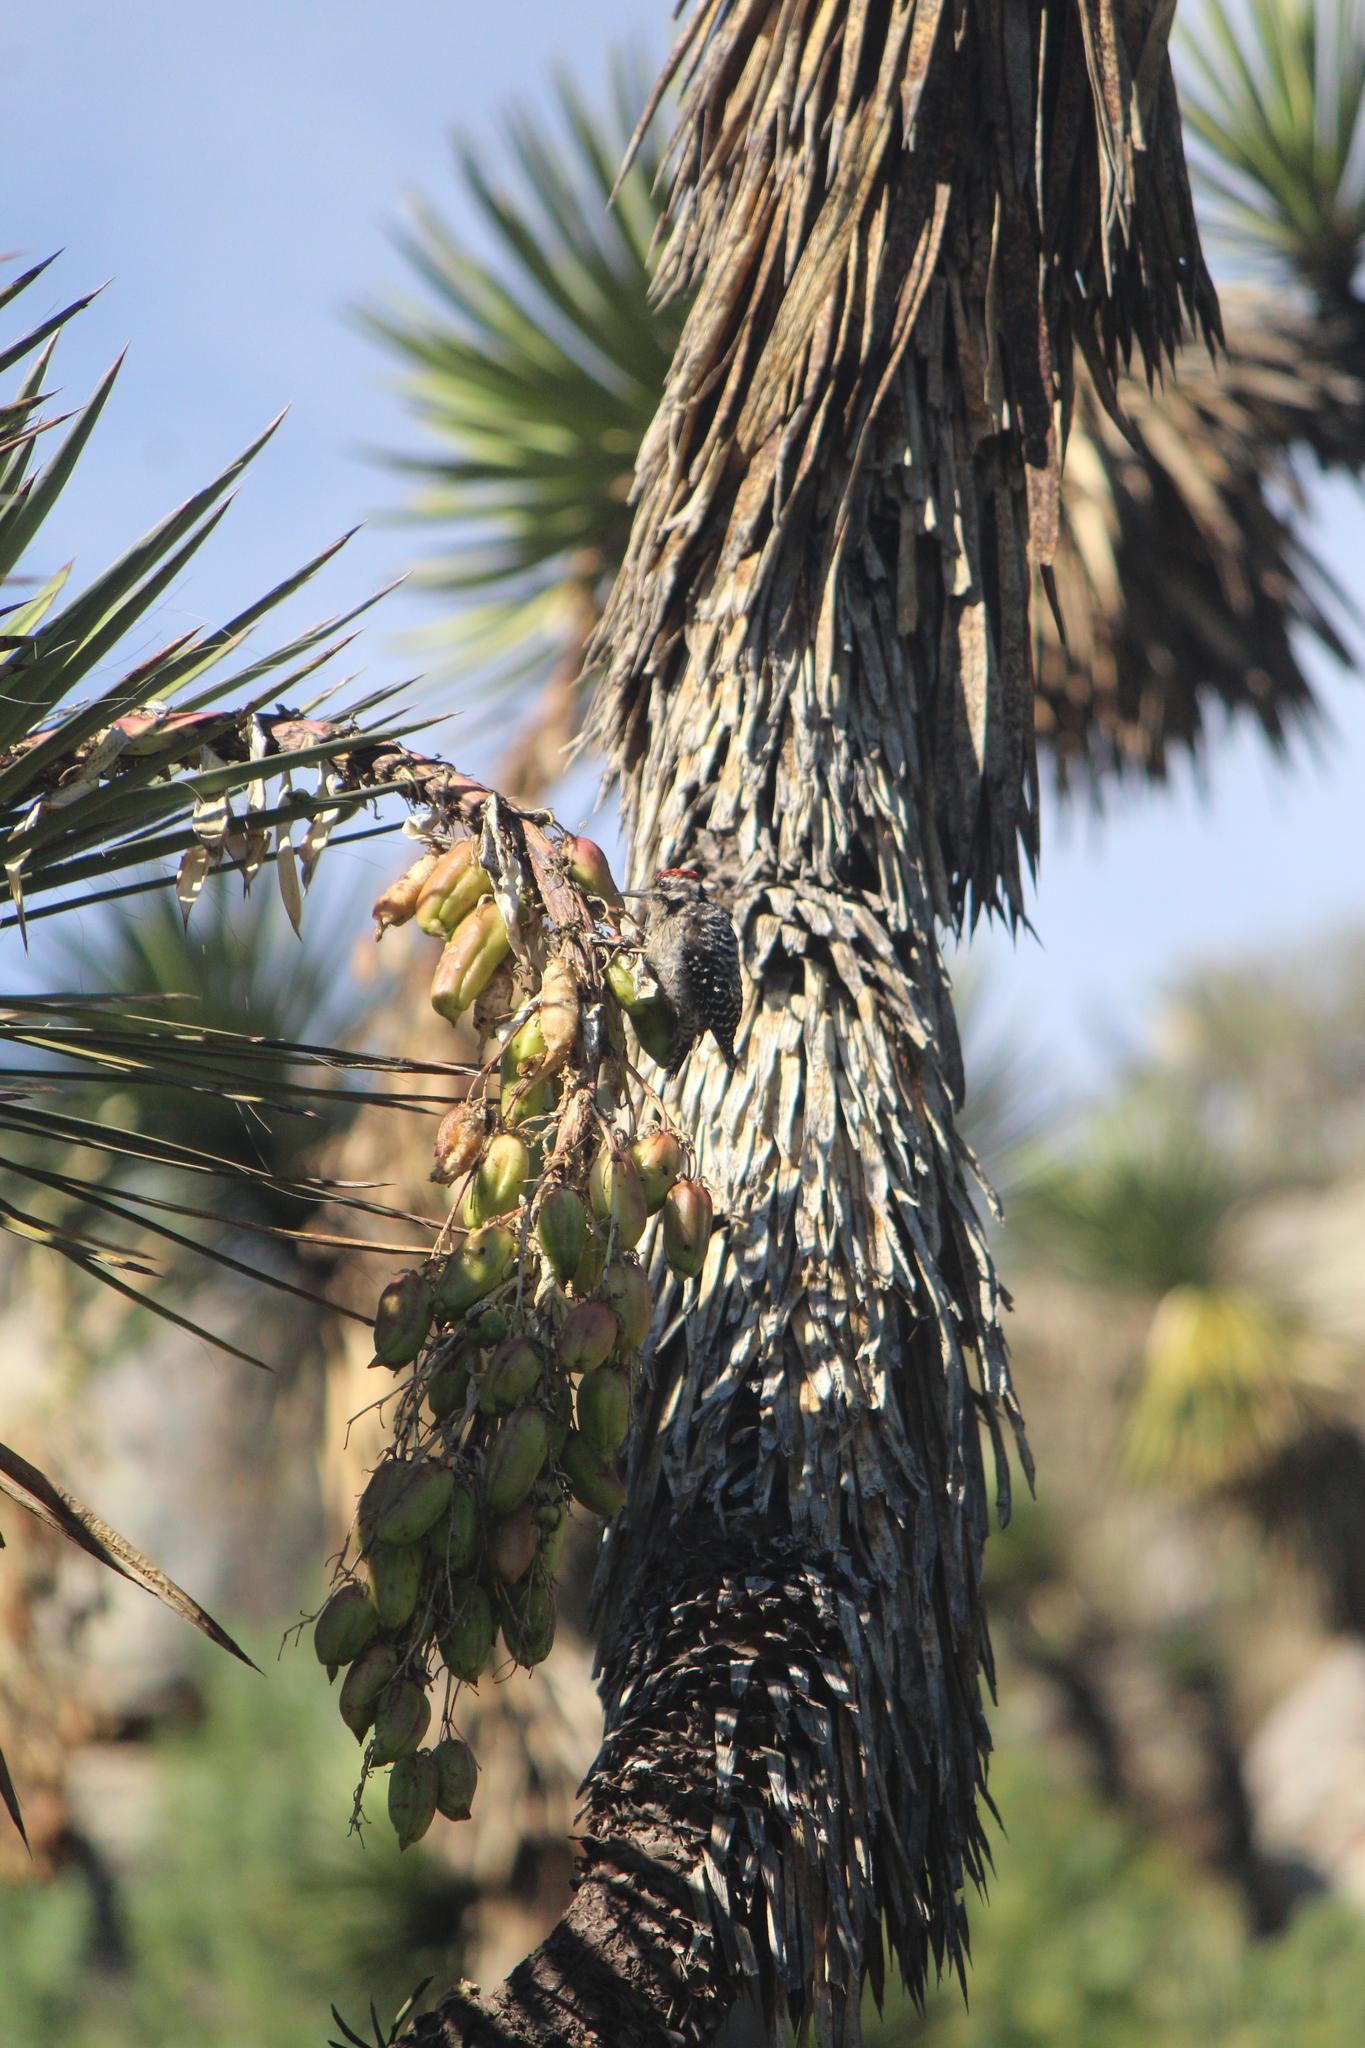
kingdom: Animalia
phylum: Chordata
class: Aves
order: Piciformes
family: Picidae
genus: Dryobates
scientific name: Dryobates scalaris
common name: Ladder-backed woodpecker
